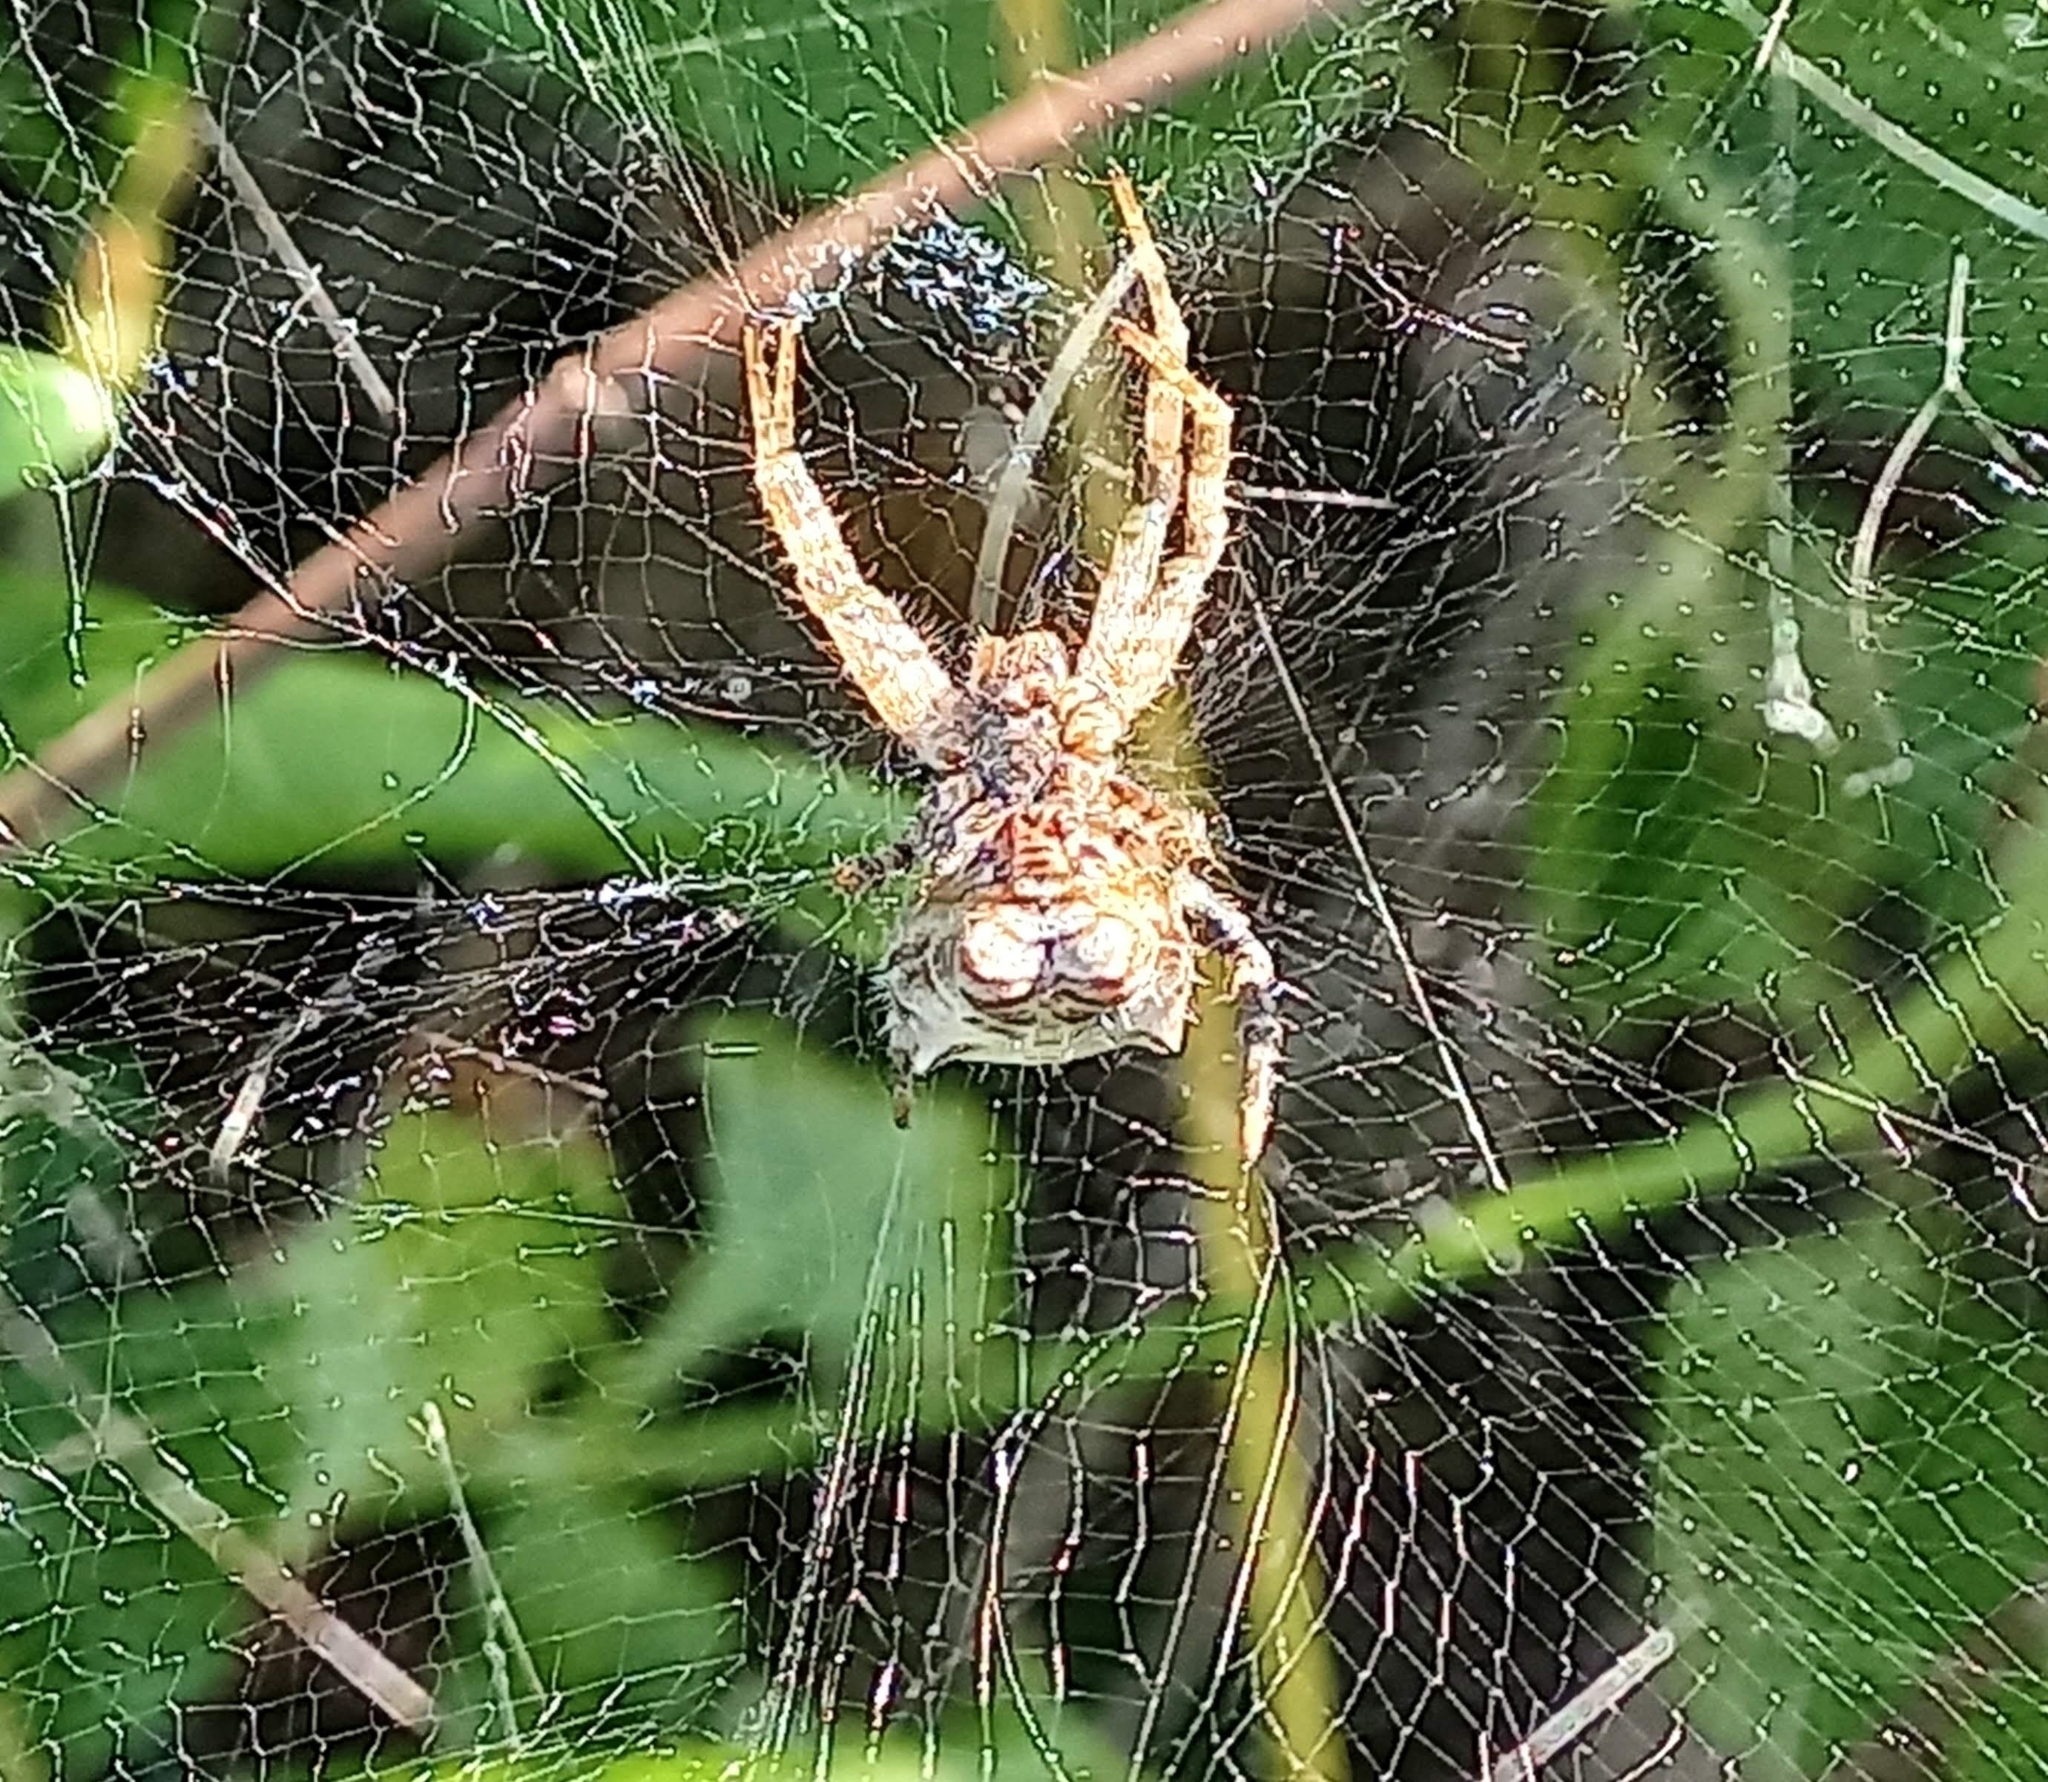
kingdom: Animalia
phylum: Arthropoda
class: Arachnida
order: Araneae
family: Araneidae
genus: Cyrtophora
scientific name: Cyrtophora citricola
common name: Orb weavers
